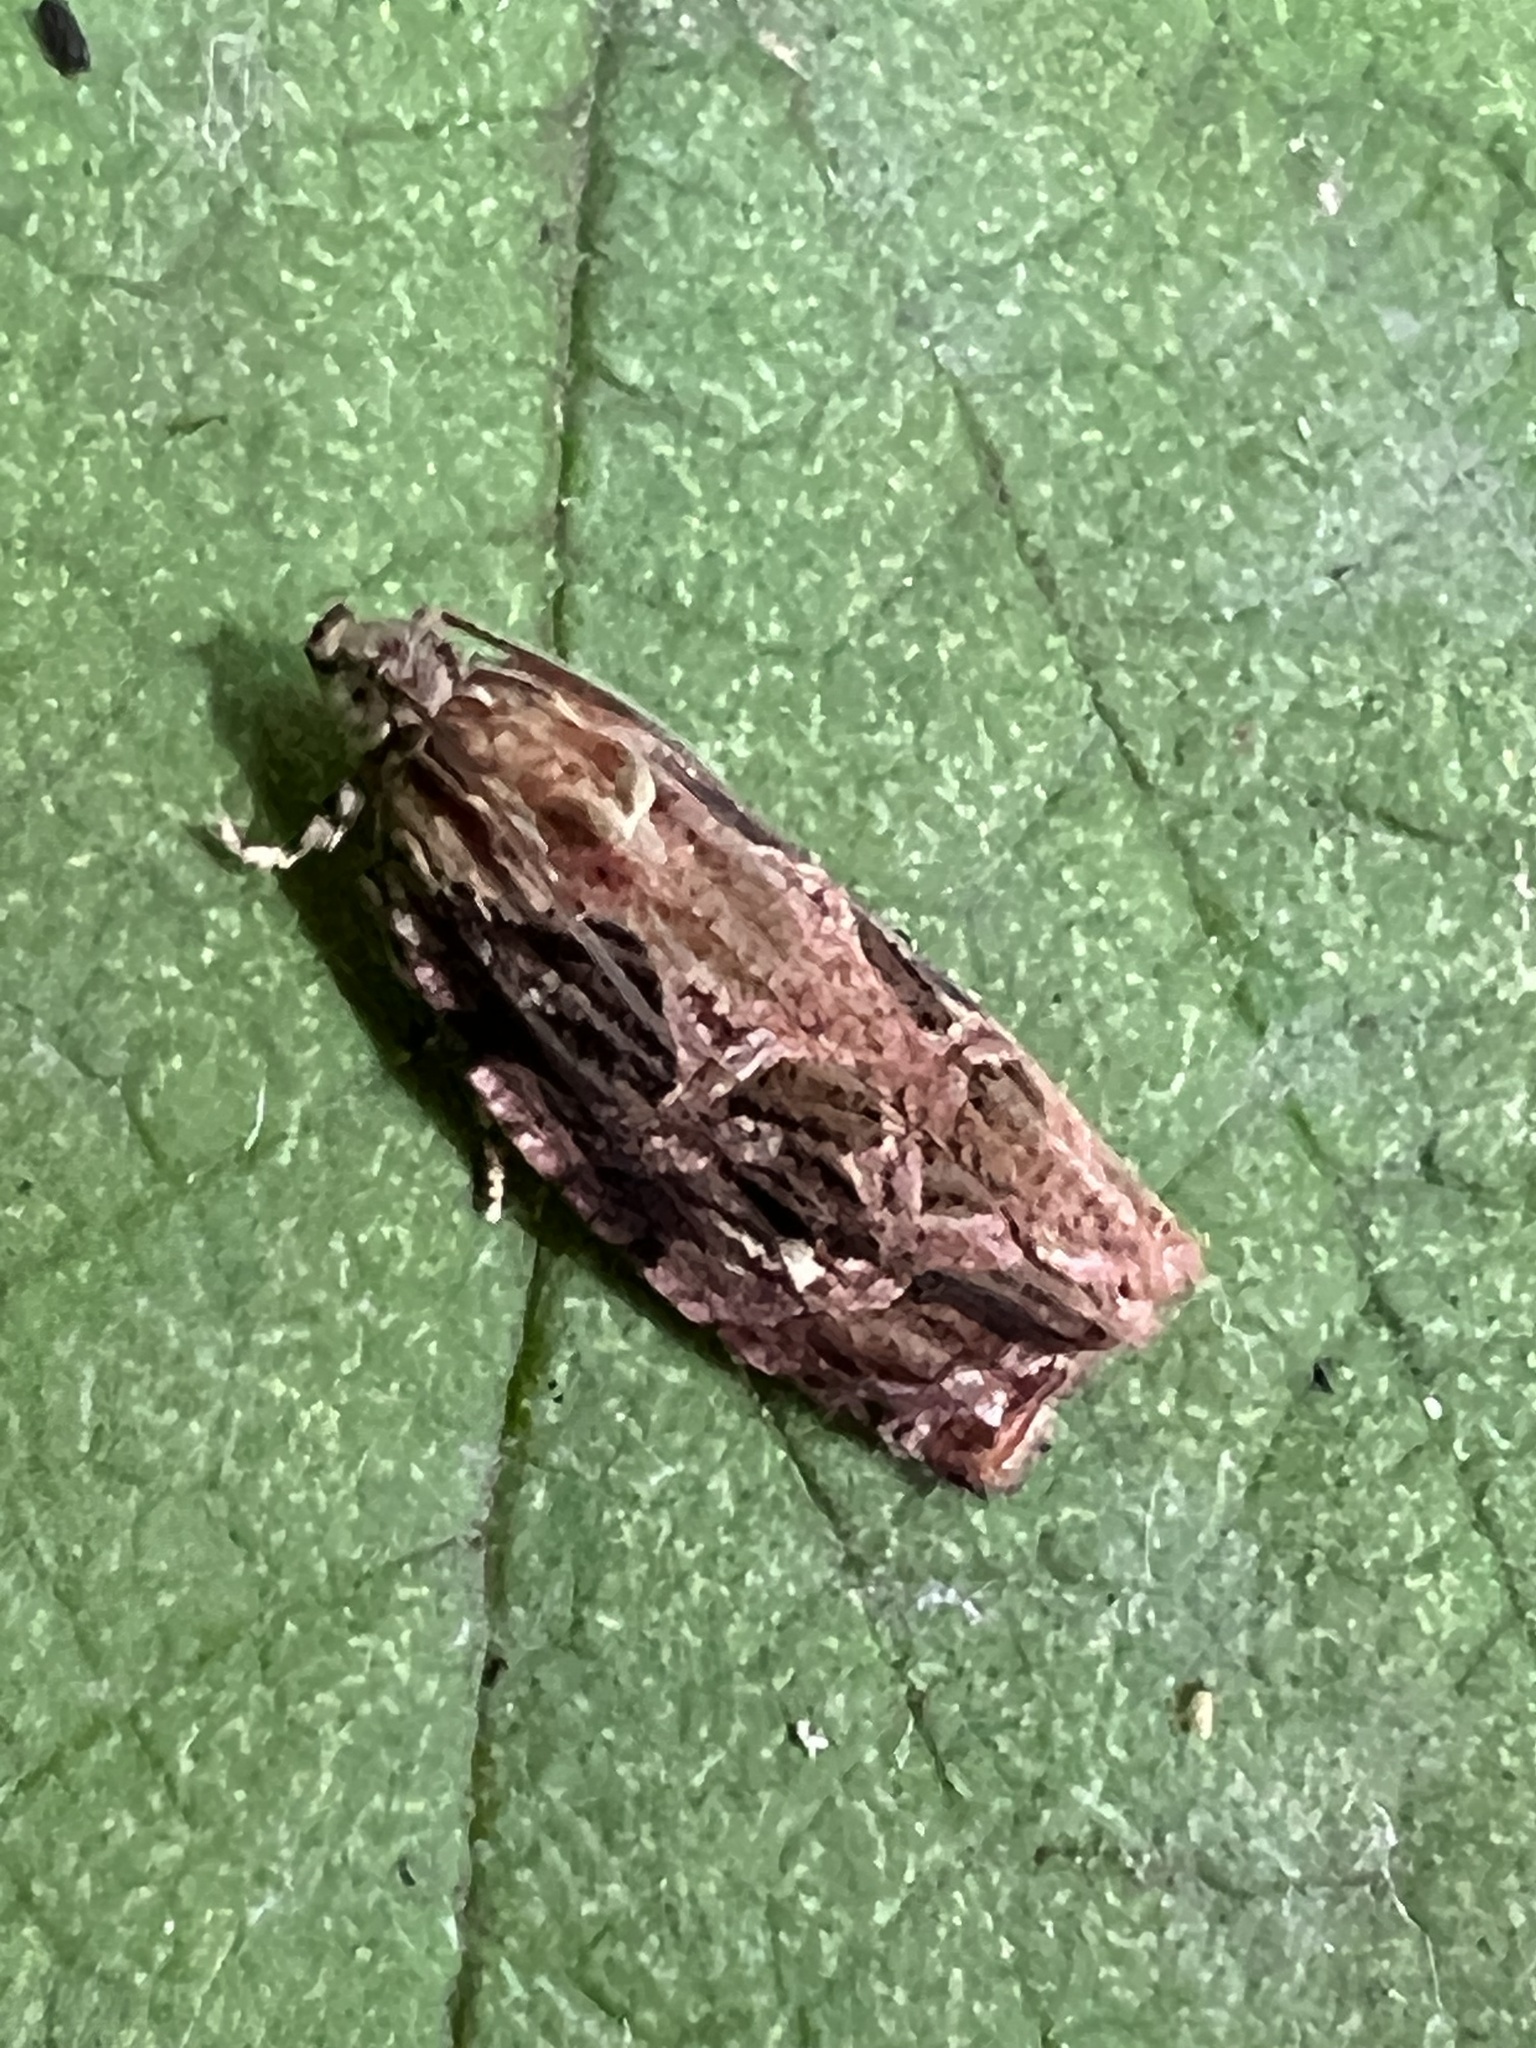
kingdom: Animalia
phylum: Arthropoda
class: Insecta
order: Lepidoptera
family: Tortricidae
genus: Phaecasiophora
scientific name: Phaecasiophora confixana
